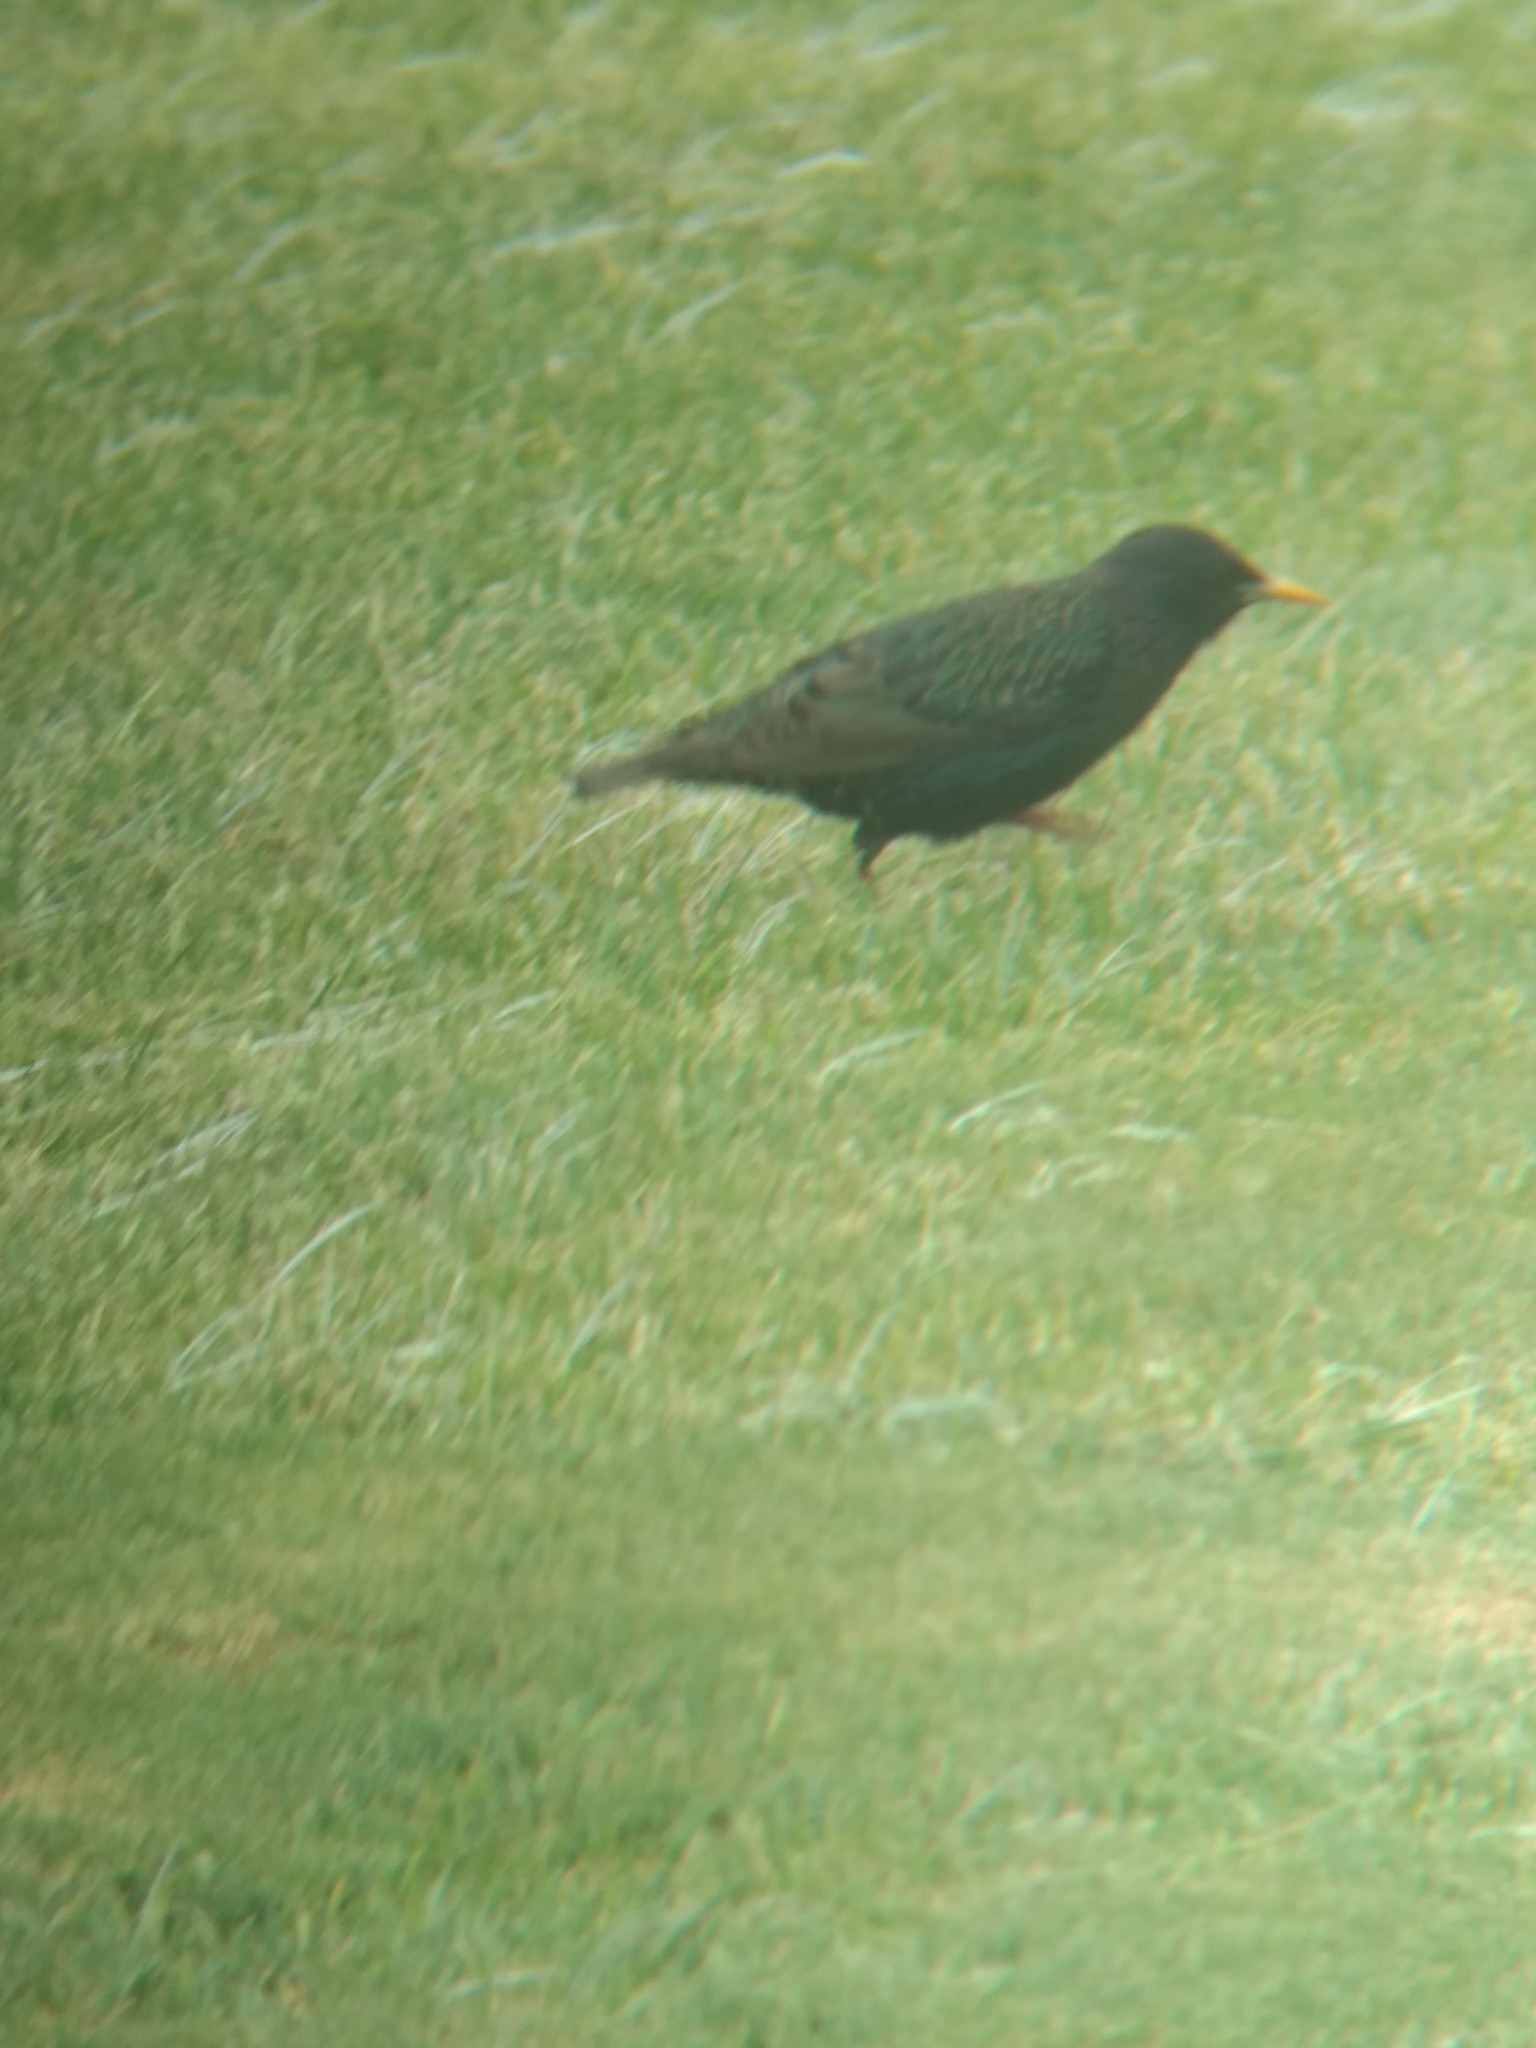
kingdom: Animalia
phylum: Chordata
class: Aves
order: Passeriformes
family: Sturnidae
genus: Sturnus
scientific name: Sturnus vulgaris
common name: Common starling
